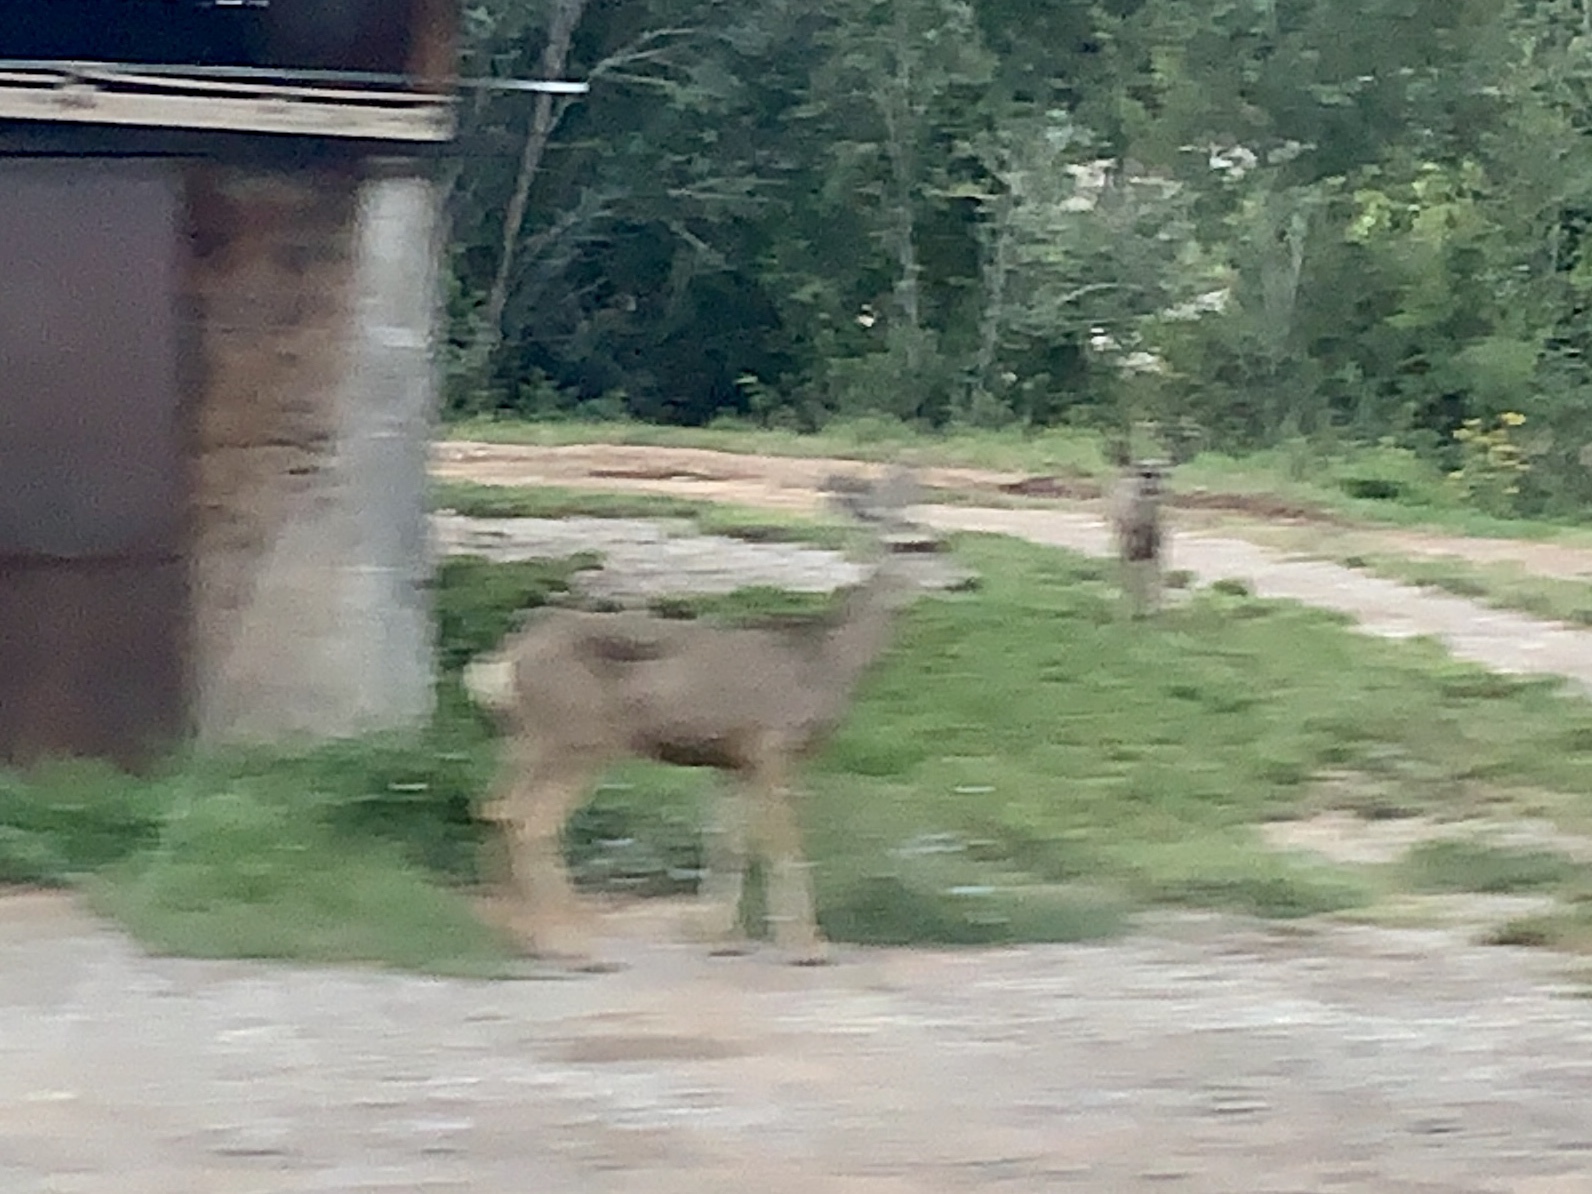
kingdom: Animalia
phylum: Chordata
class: Mammalia
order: Artiodactyla
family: Cervidae
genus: Odocoileus
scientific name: Odocoileus hemionus
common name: Mule deer
